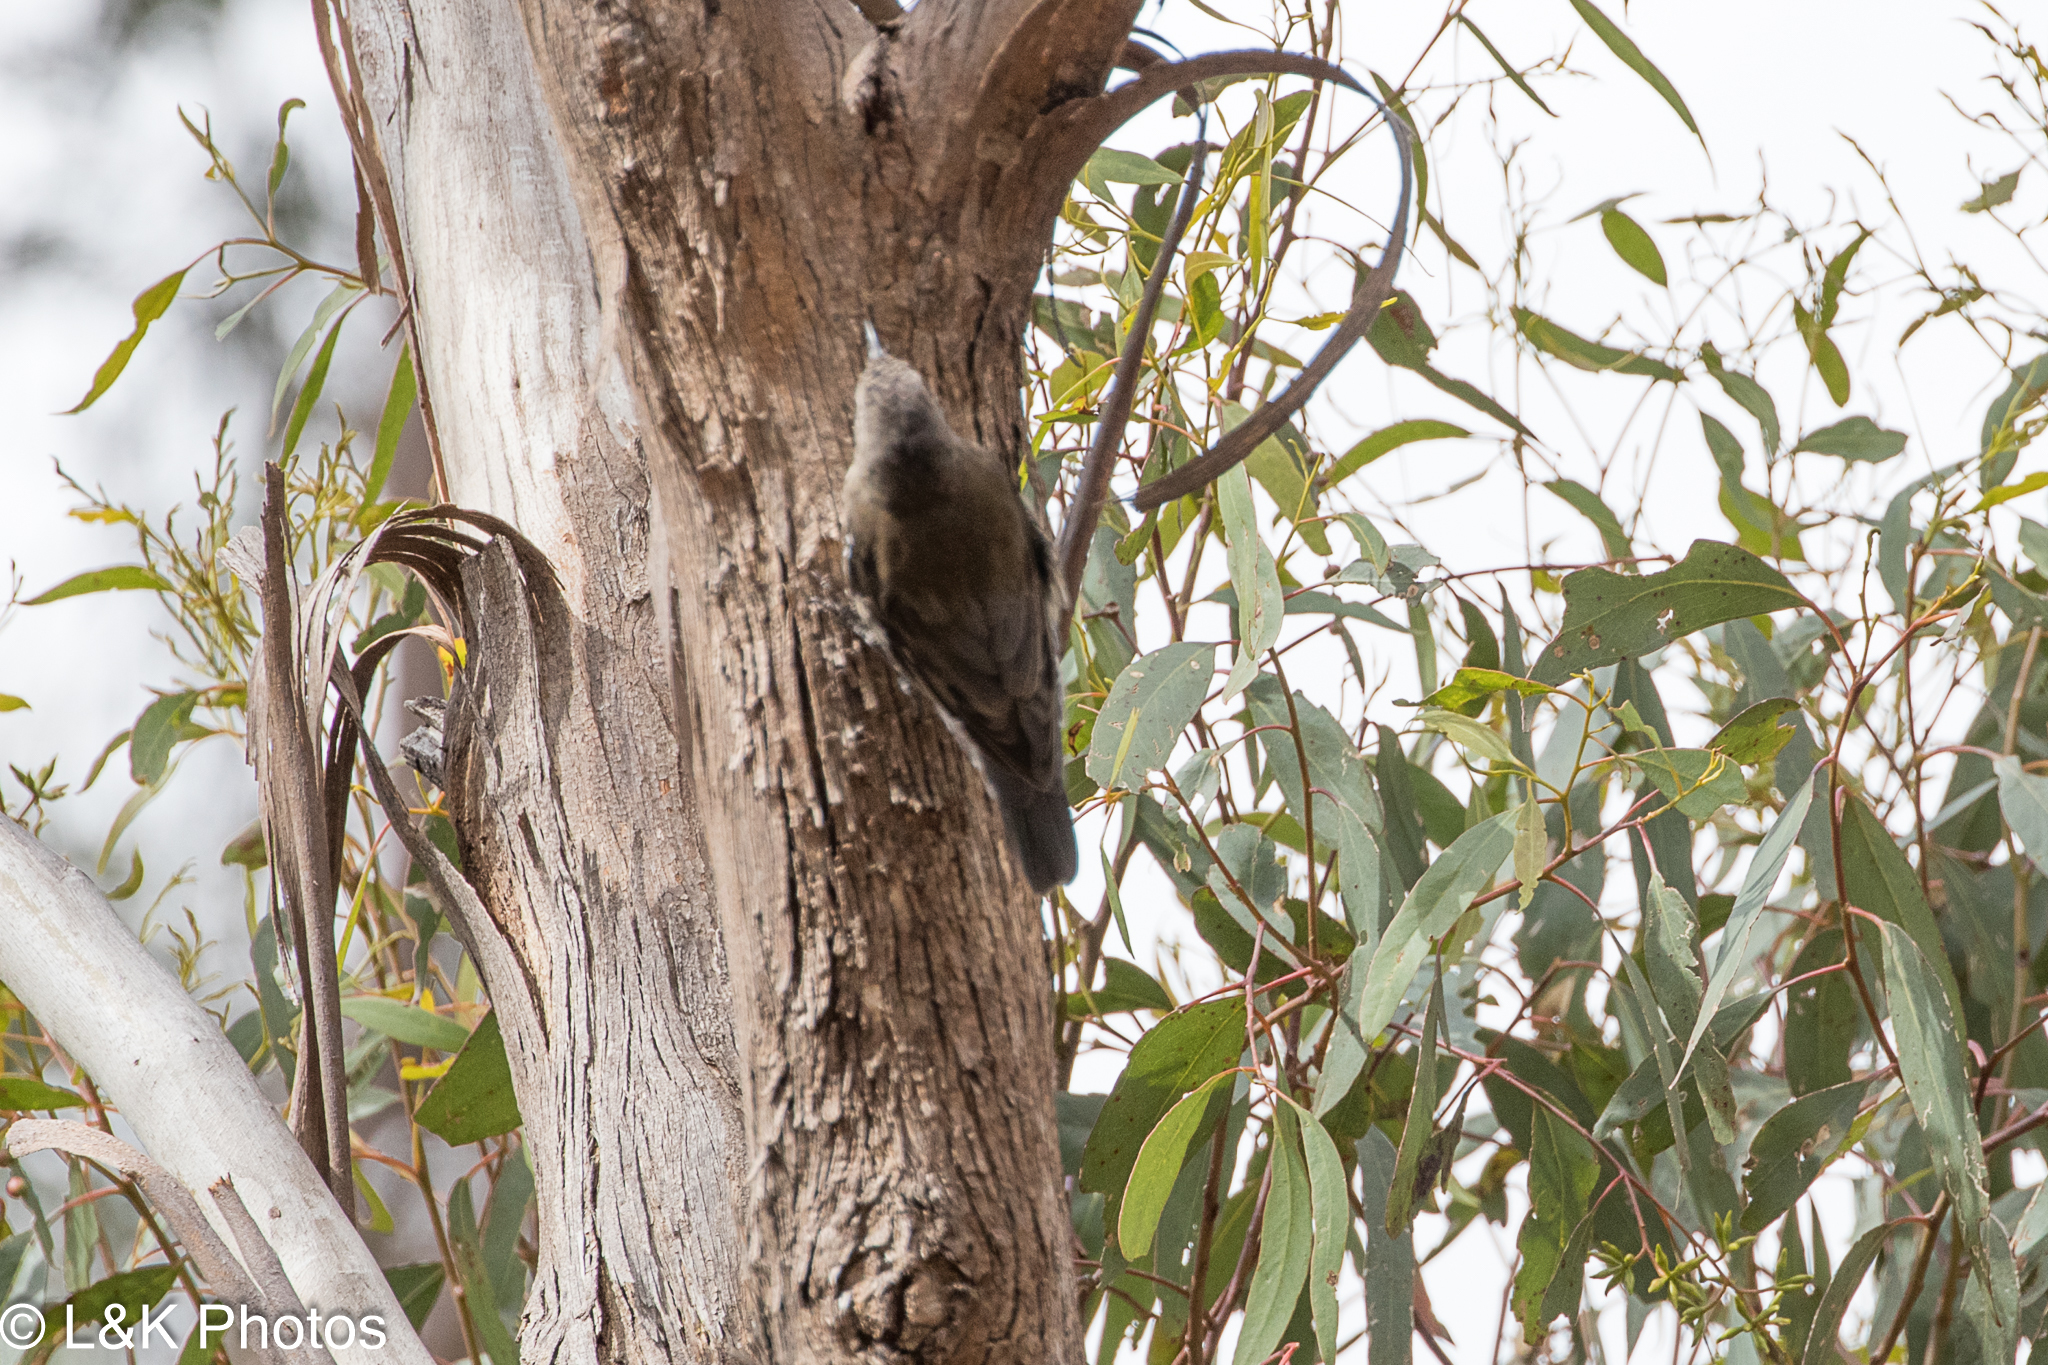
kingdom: Animalia
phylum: Chordata
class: Aves
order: Passeriformes
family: Climacteridae
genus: Cormobates
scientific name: Cormobates leucophaea
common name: White-throated treecreeper
